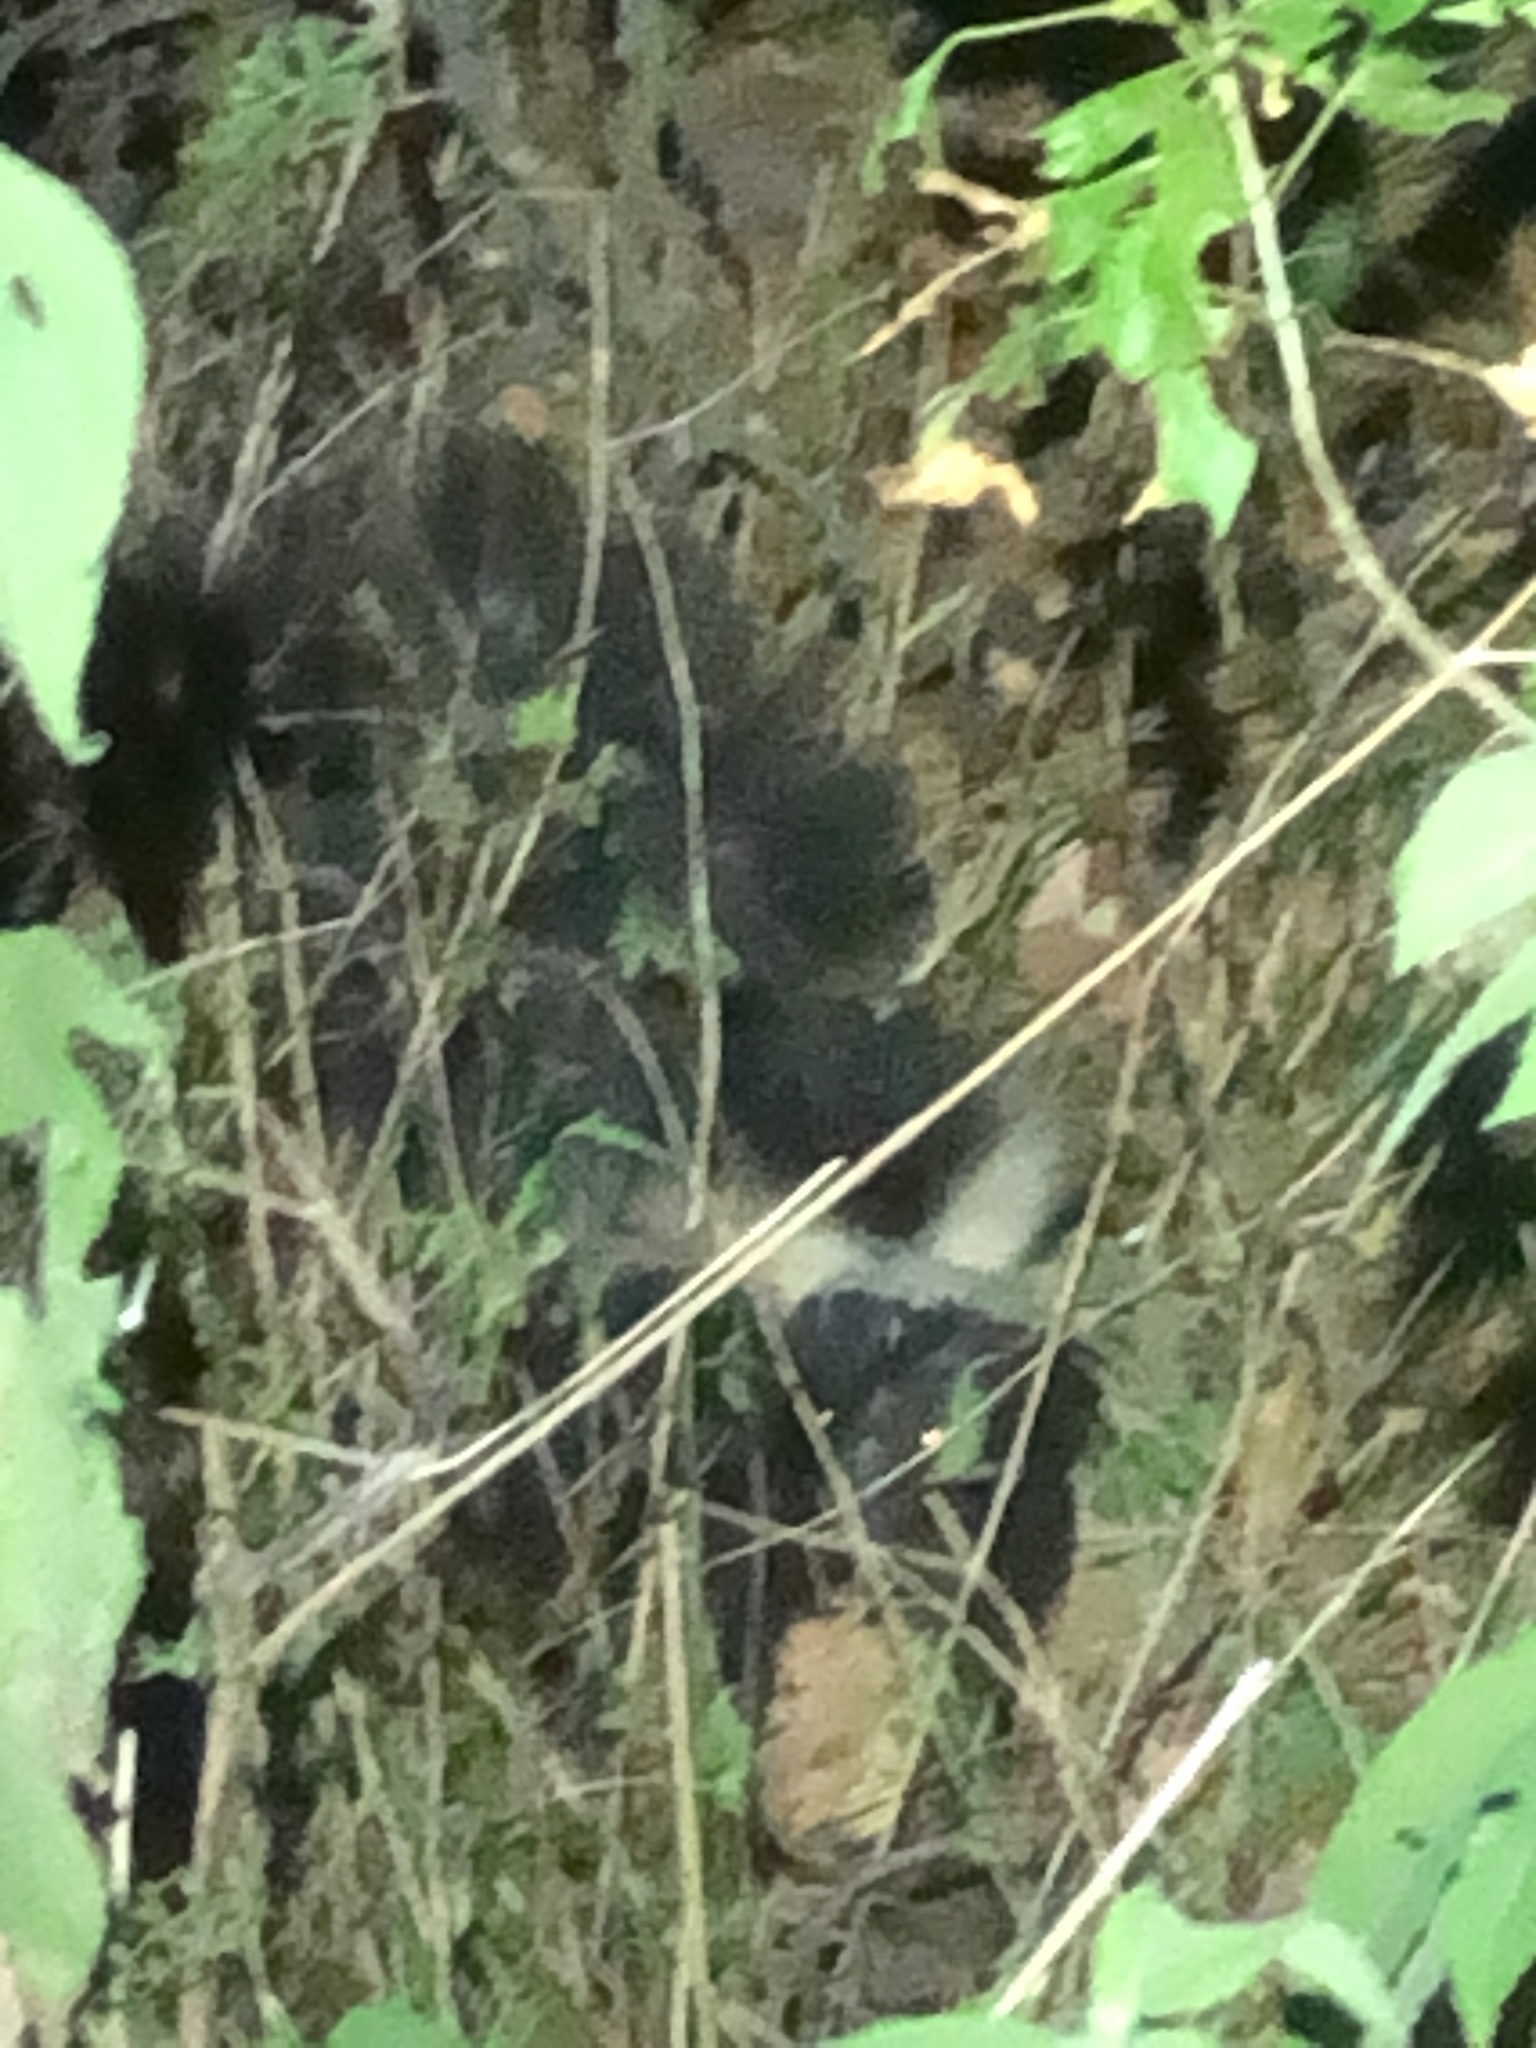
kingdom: Animalia
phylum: Chordata
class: Mammalia
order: Carnivora
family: Mephitidae
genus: Mephitis
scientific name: Mephitis mephitis
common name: Striped skunk
